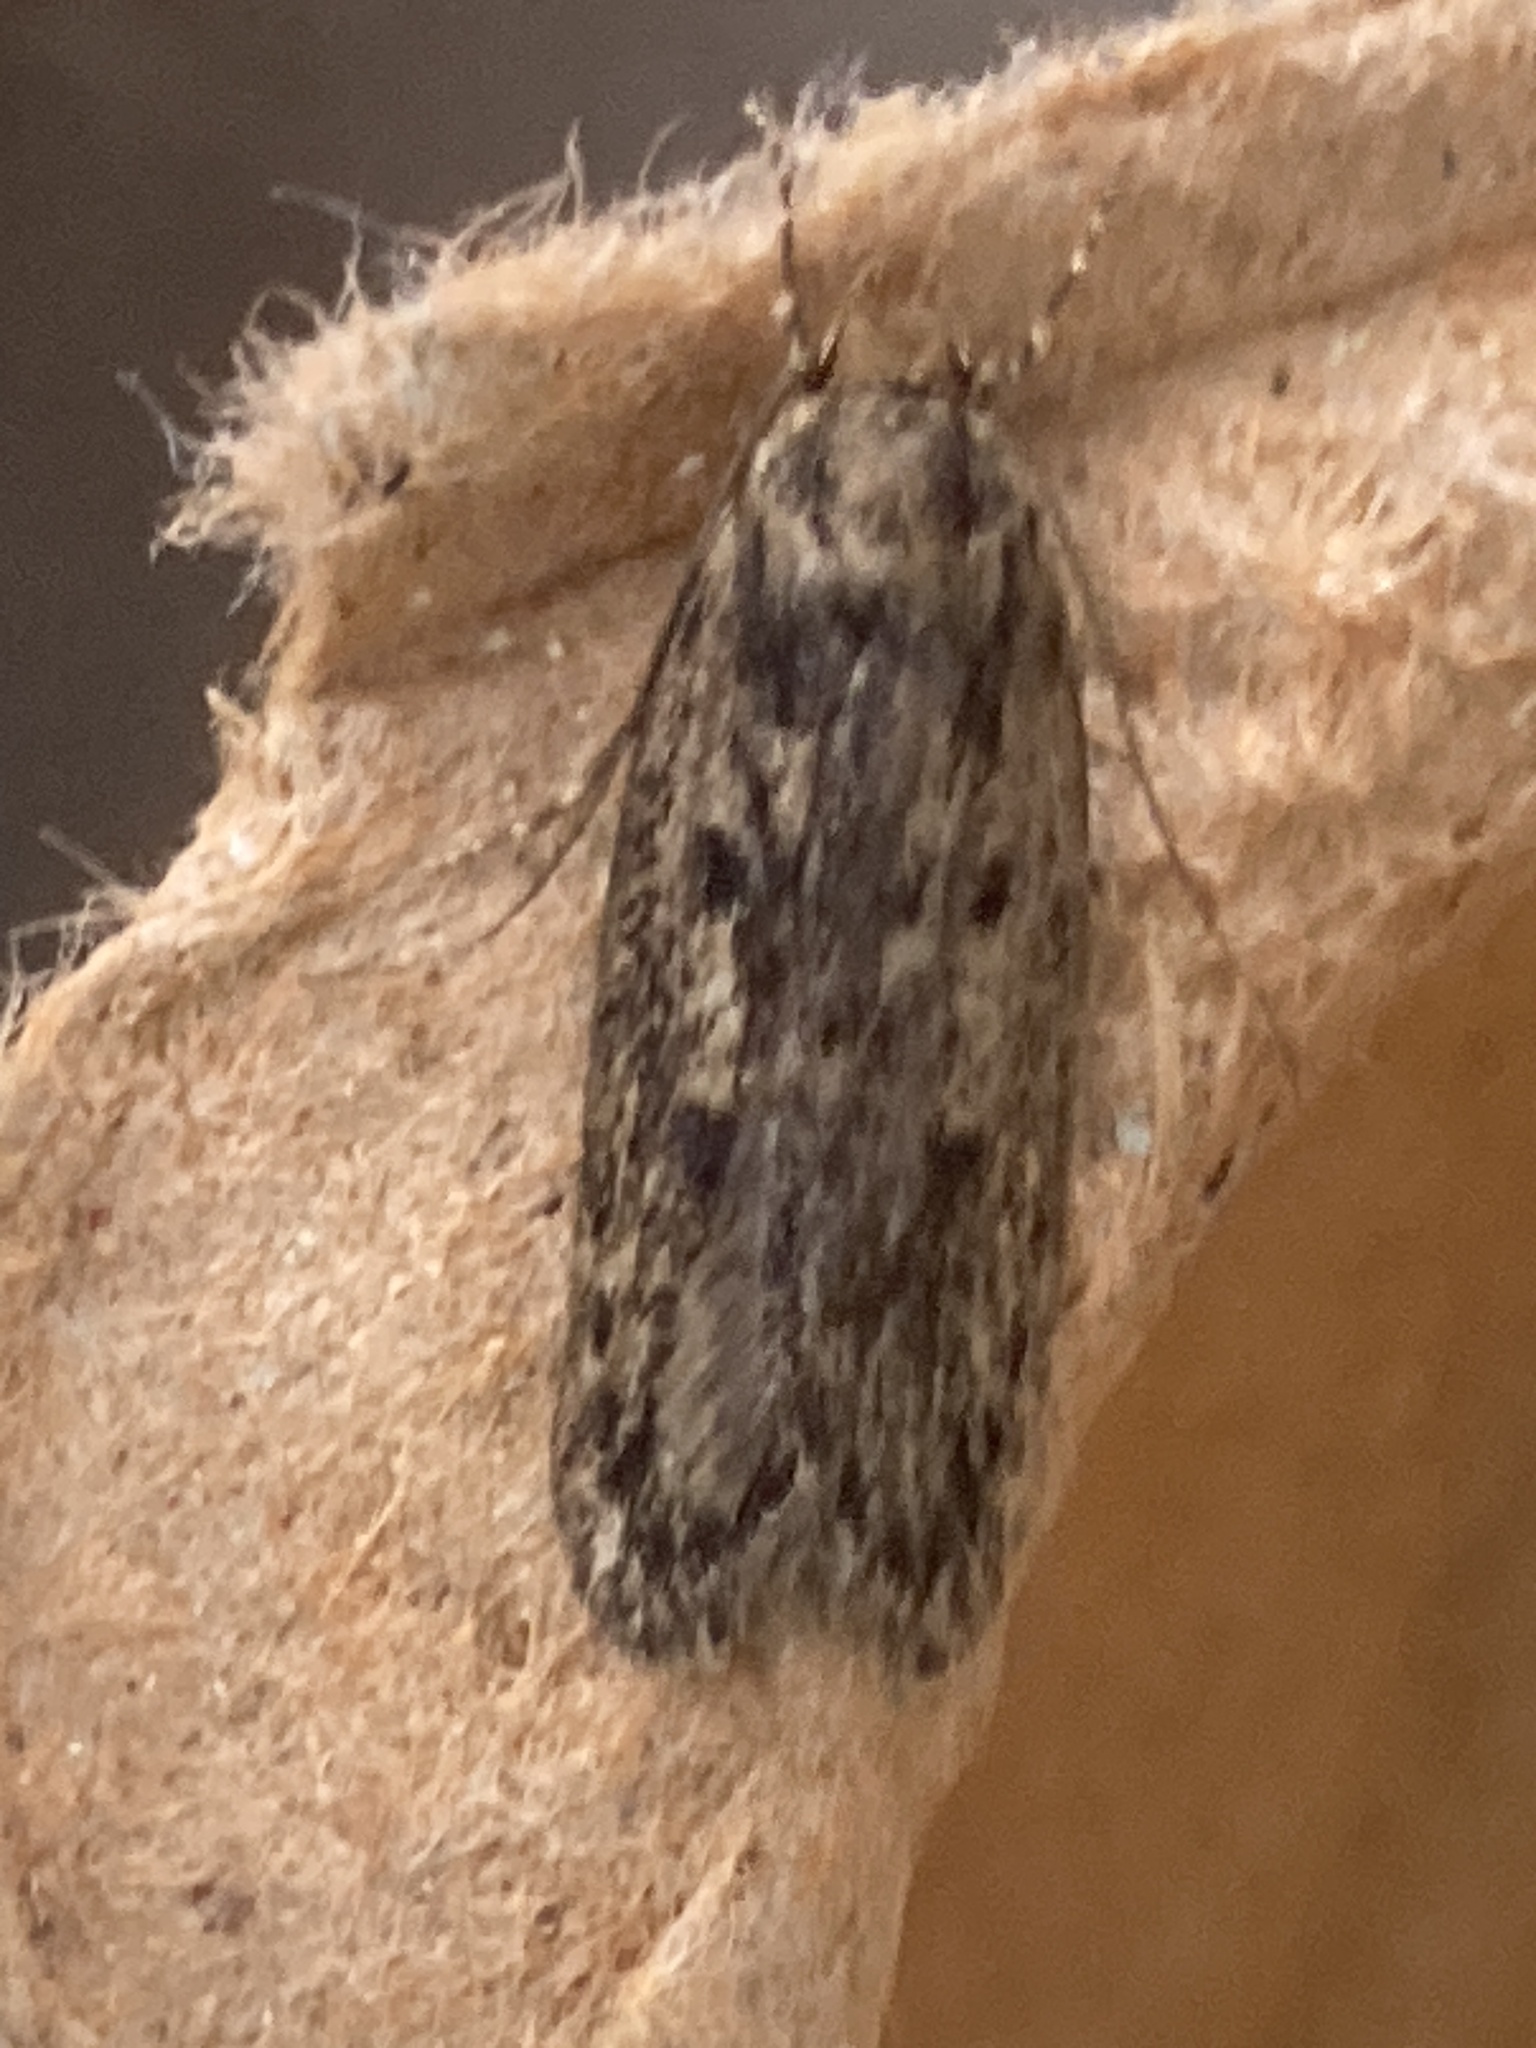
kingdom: Animalia
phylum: Arthropoda
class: Insecta
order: Lepidoptera
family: Oecophoridae
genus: Hofmannophila
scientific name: Hofmannophila pseudospretella
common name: Brown house moth
